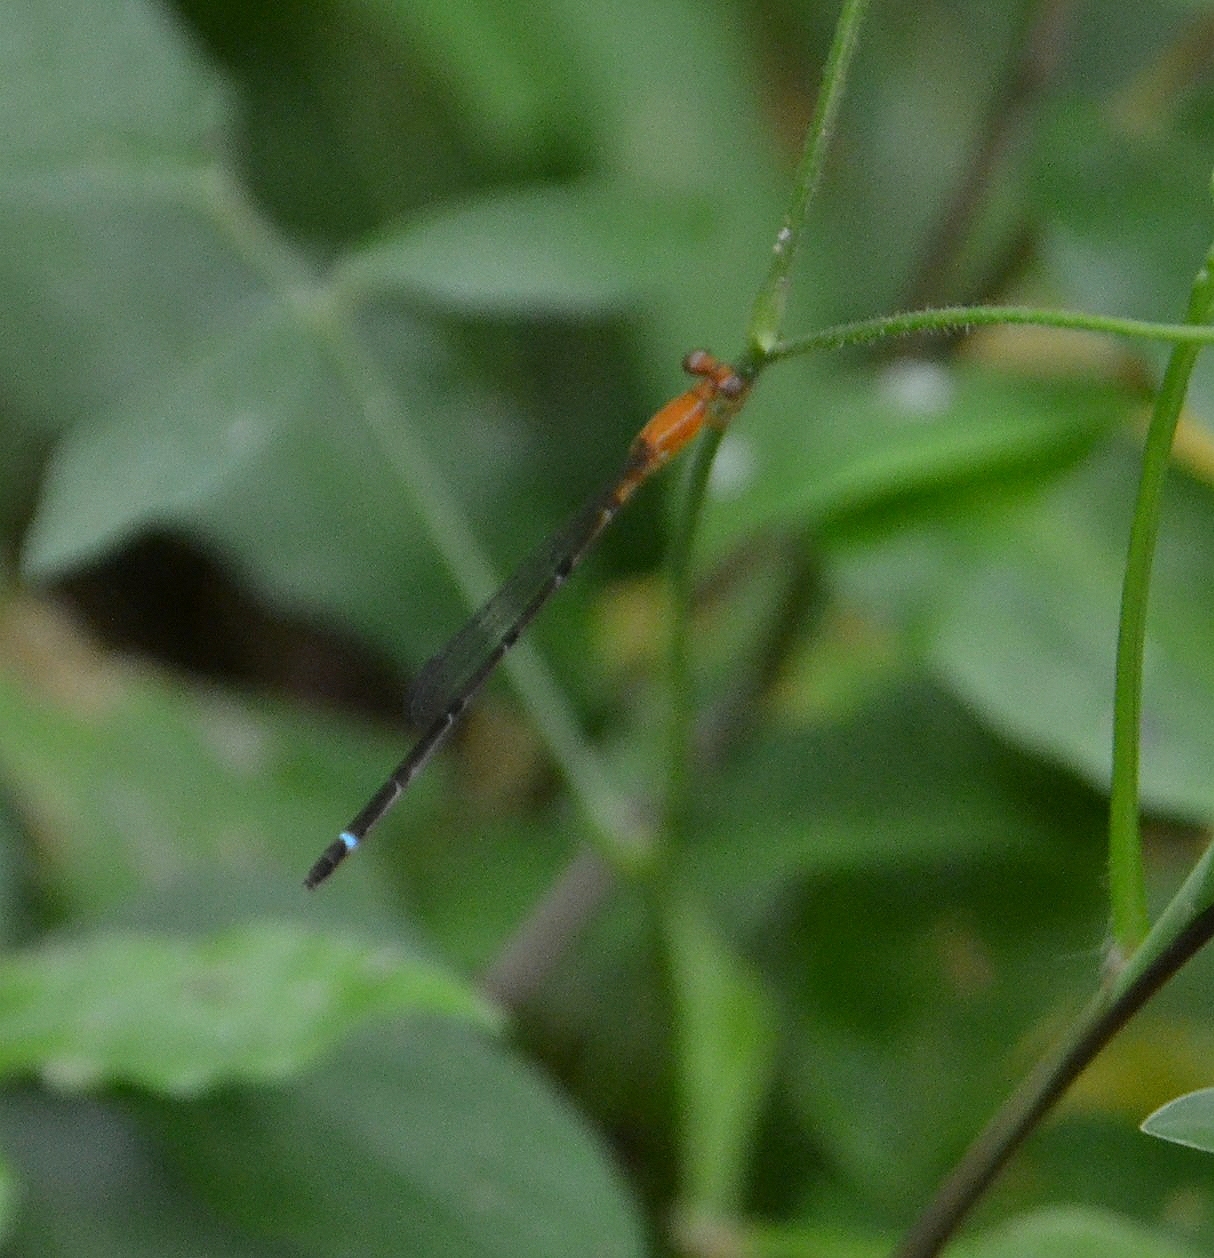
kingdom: Animalia
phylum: Arthropoda
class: Insecta
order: Odonata
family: Coenagrionidae
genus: Mortonagrion
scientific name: Mortonagrion varralli
